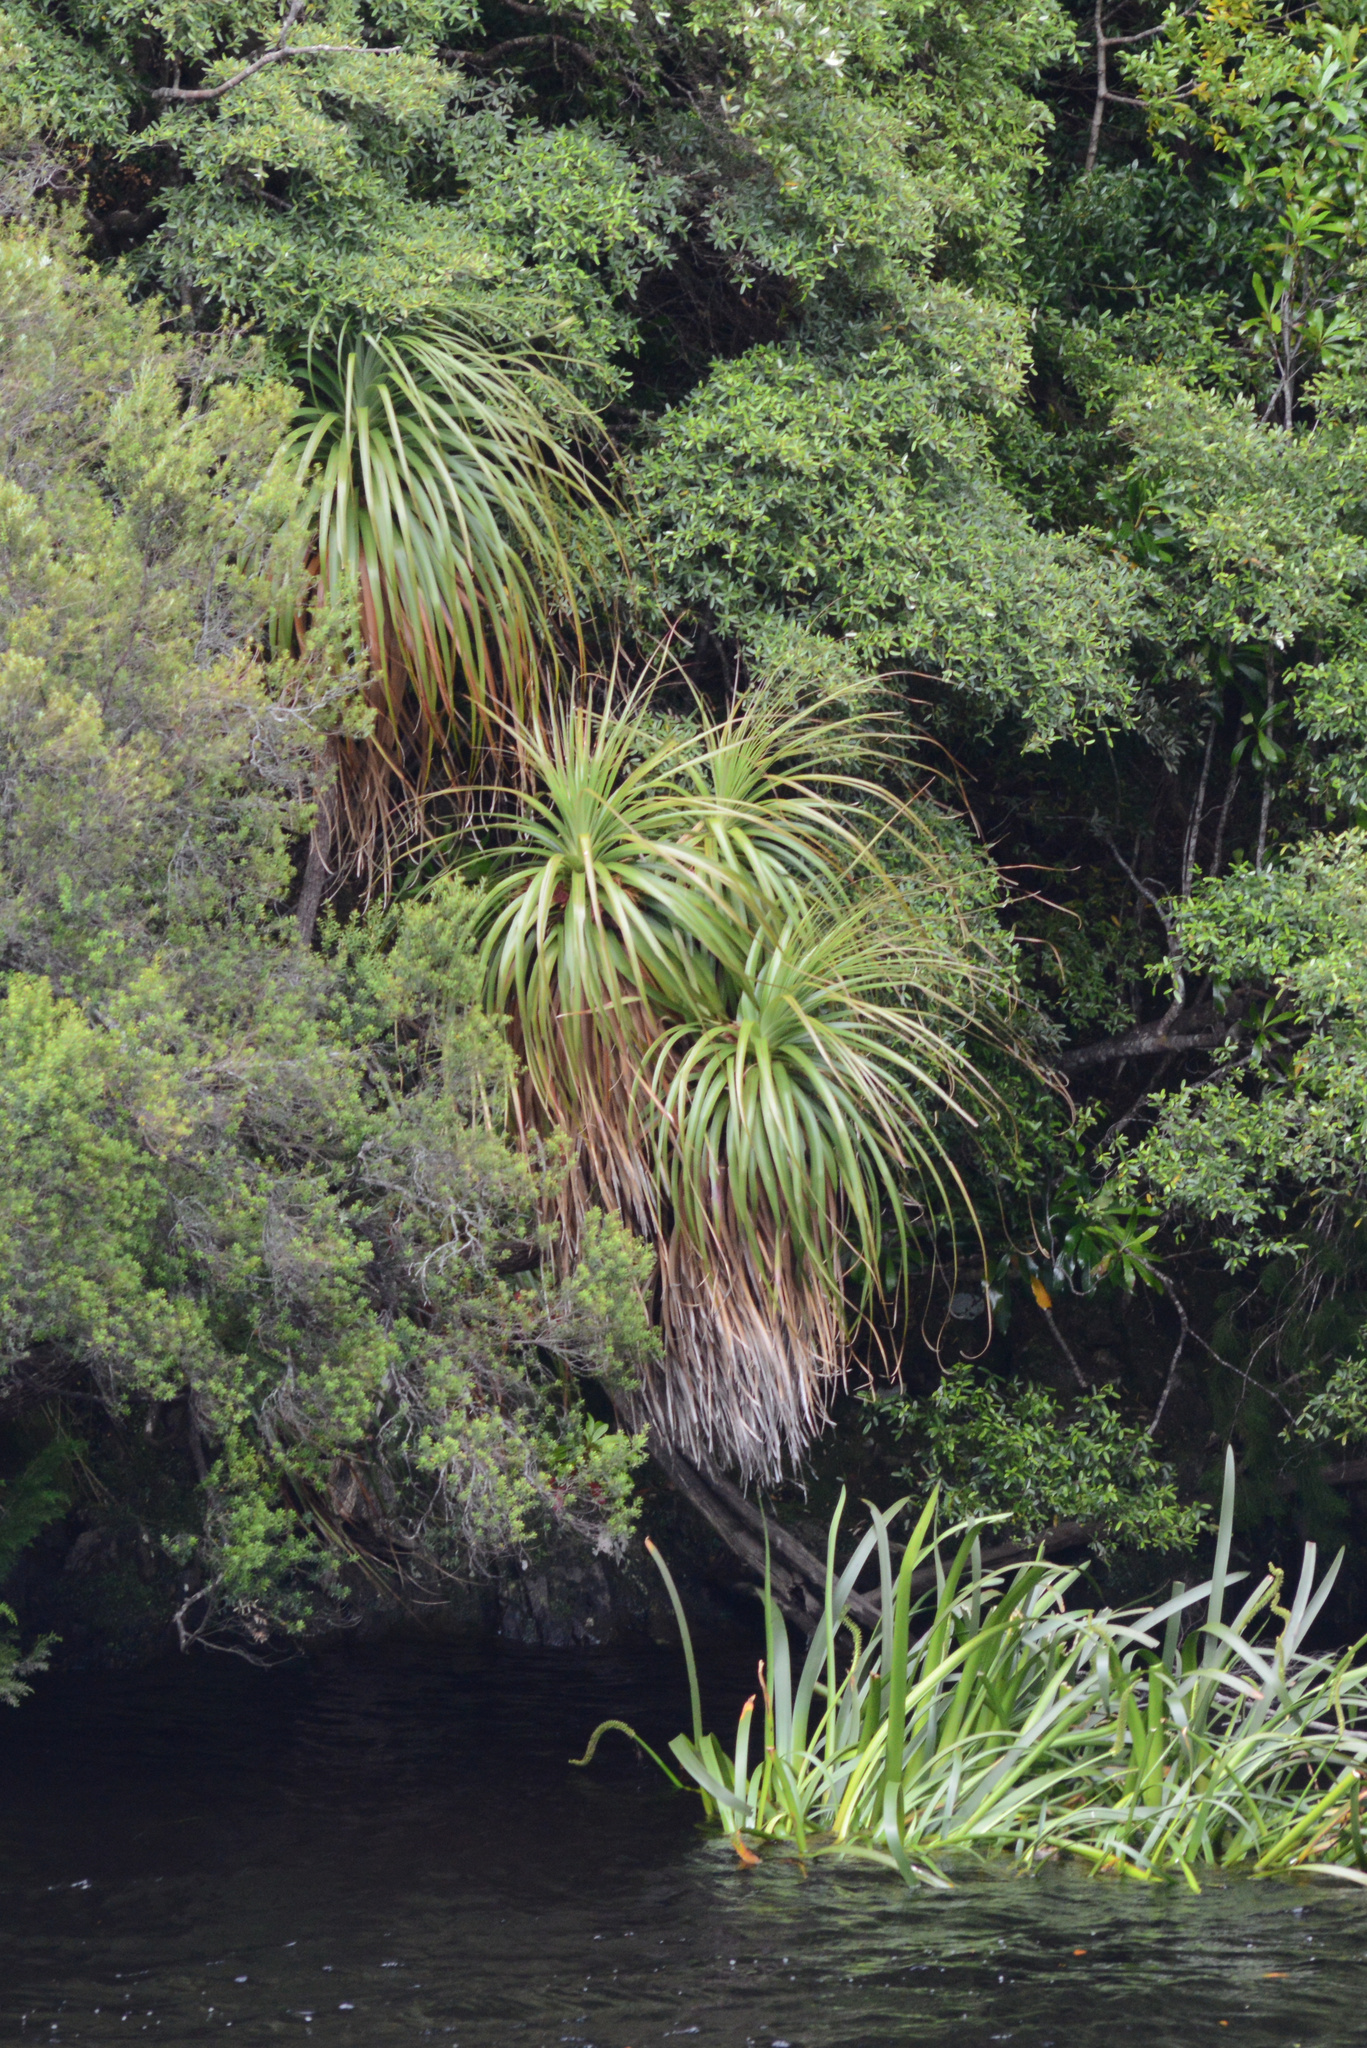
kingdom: Plantae
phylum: Tracheophyta
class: Magnoliopsida
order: Ericales
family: Ericaceae
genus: Dracophyllum
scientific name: Dracophyllum pandanifolium
